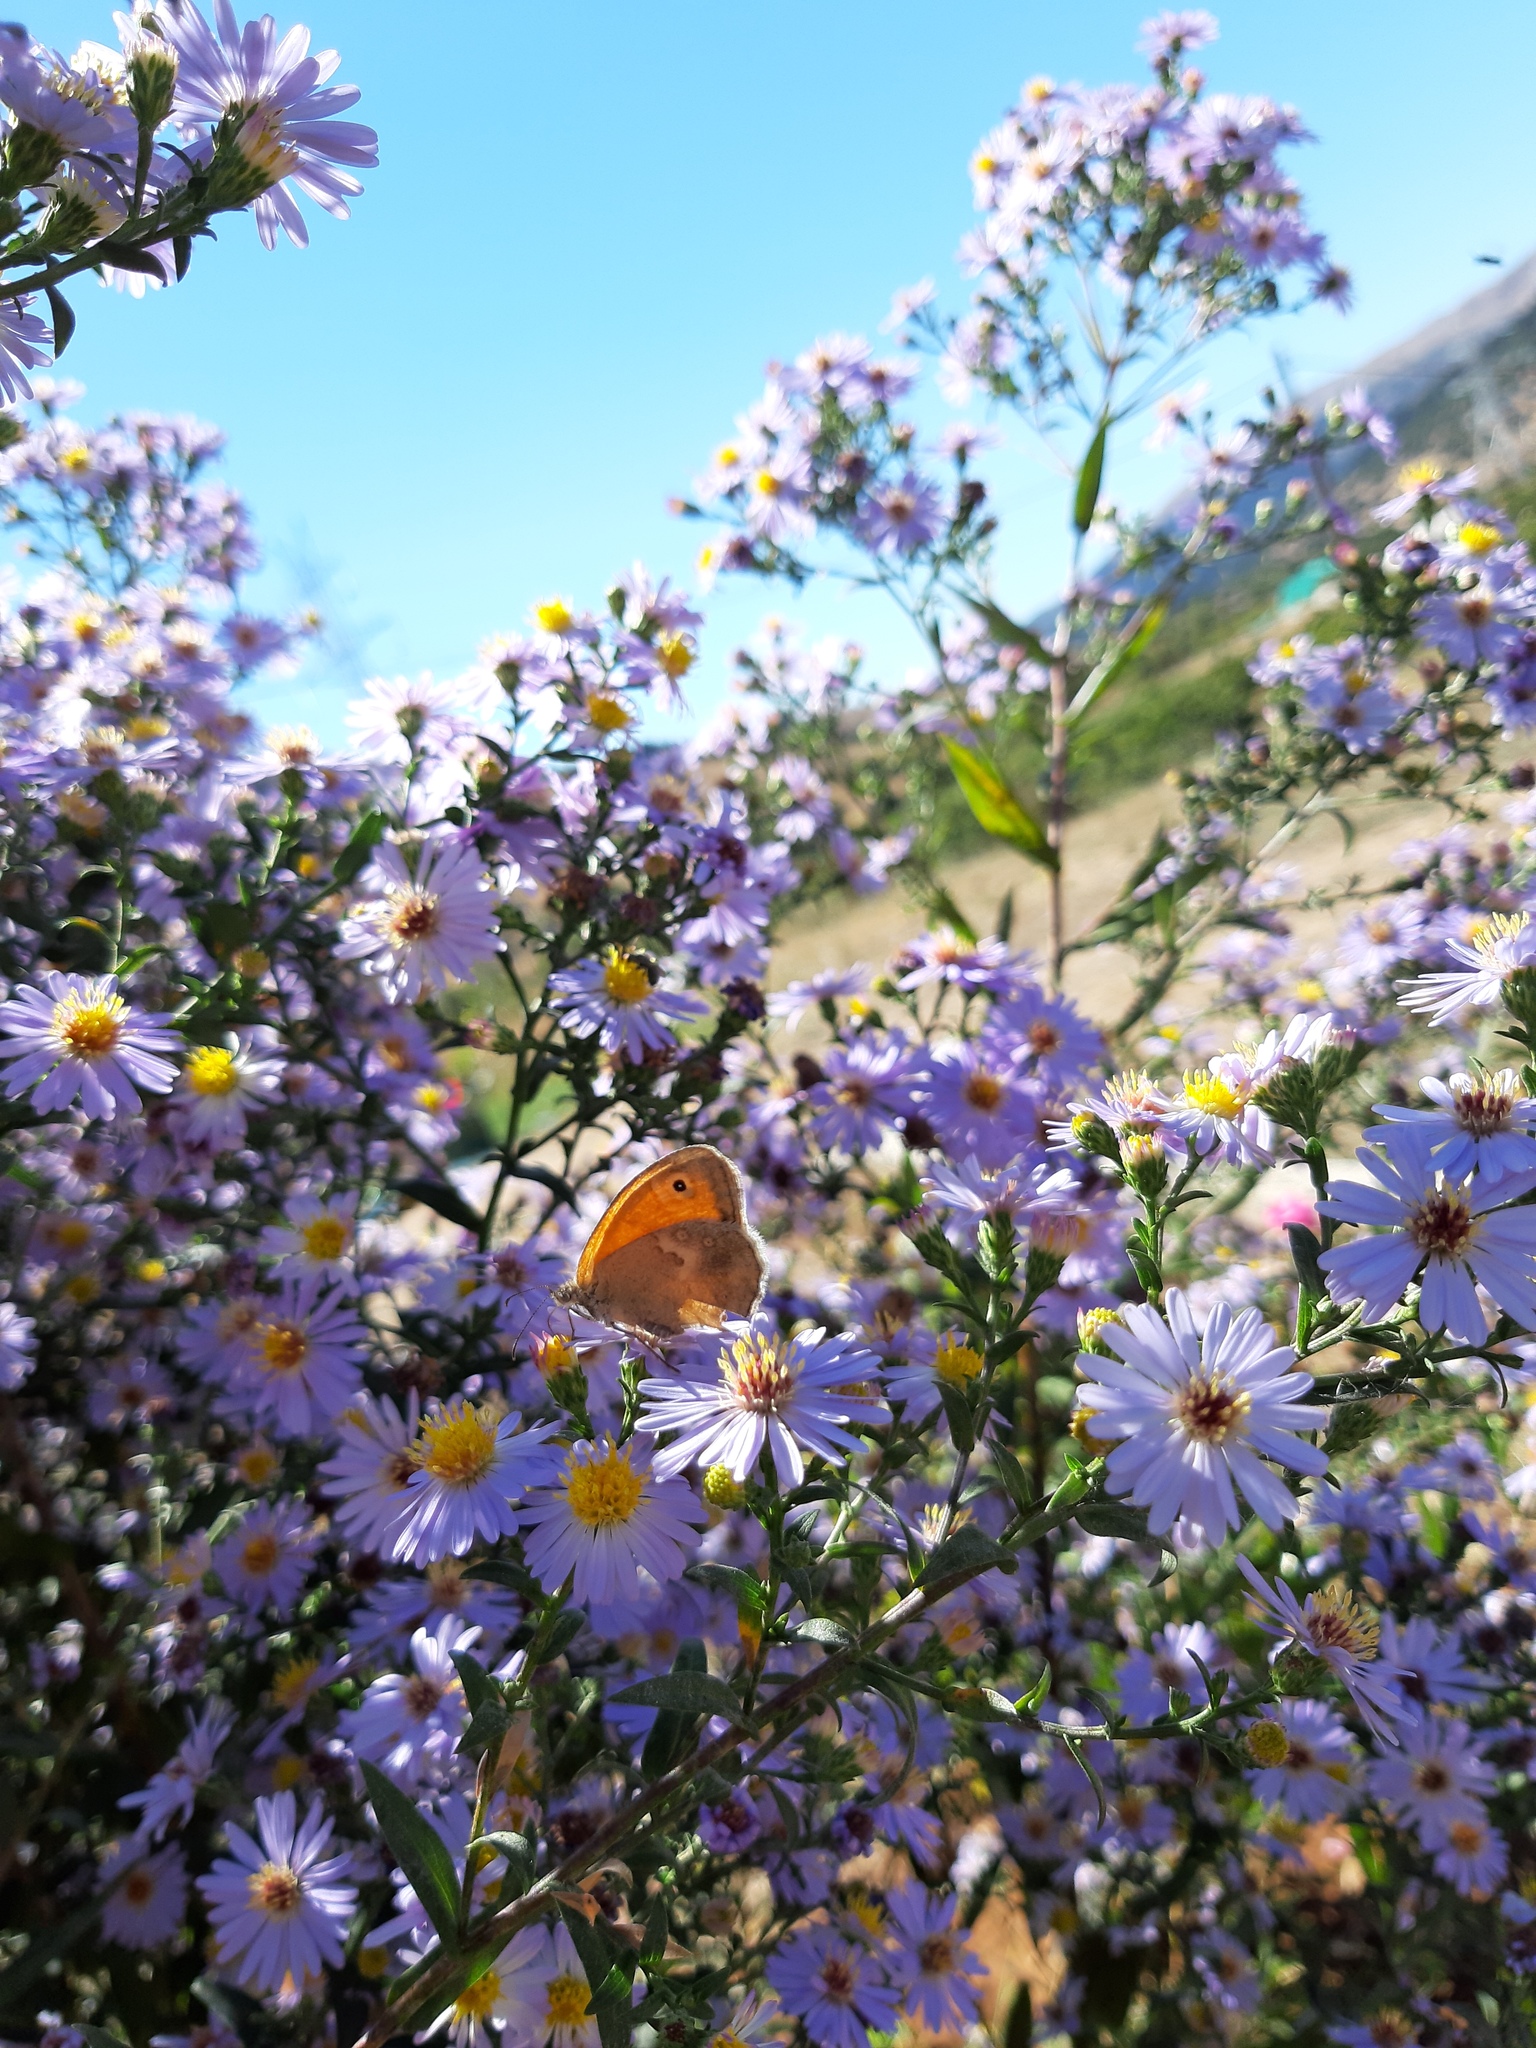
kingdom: Animalia
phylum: Arthropoda
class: Insecta
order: Lepidoptera
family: Nymphalidae
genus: Coenonympha
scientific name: Coenonympha pamphilus
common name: Small heath
